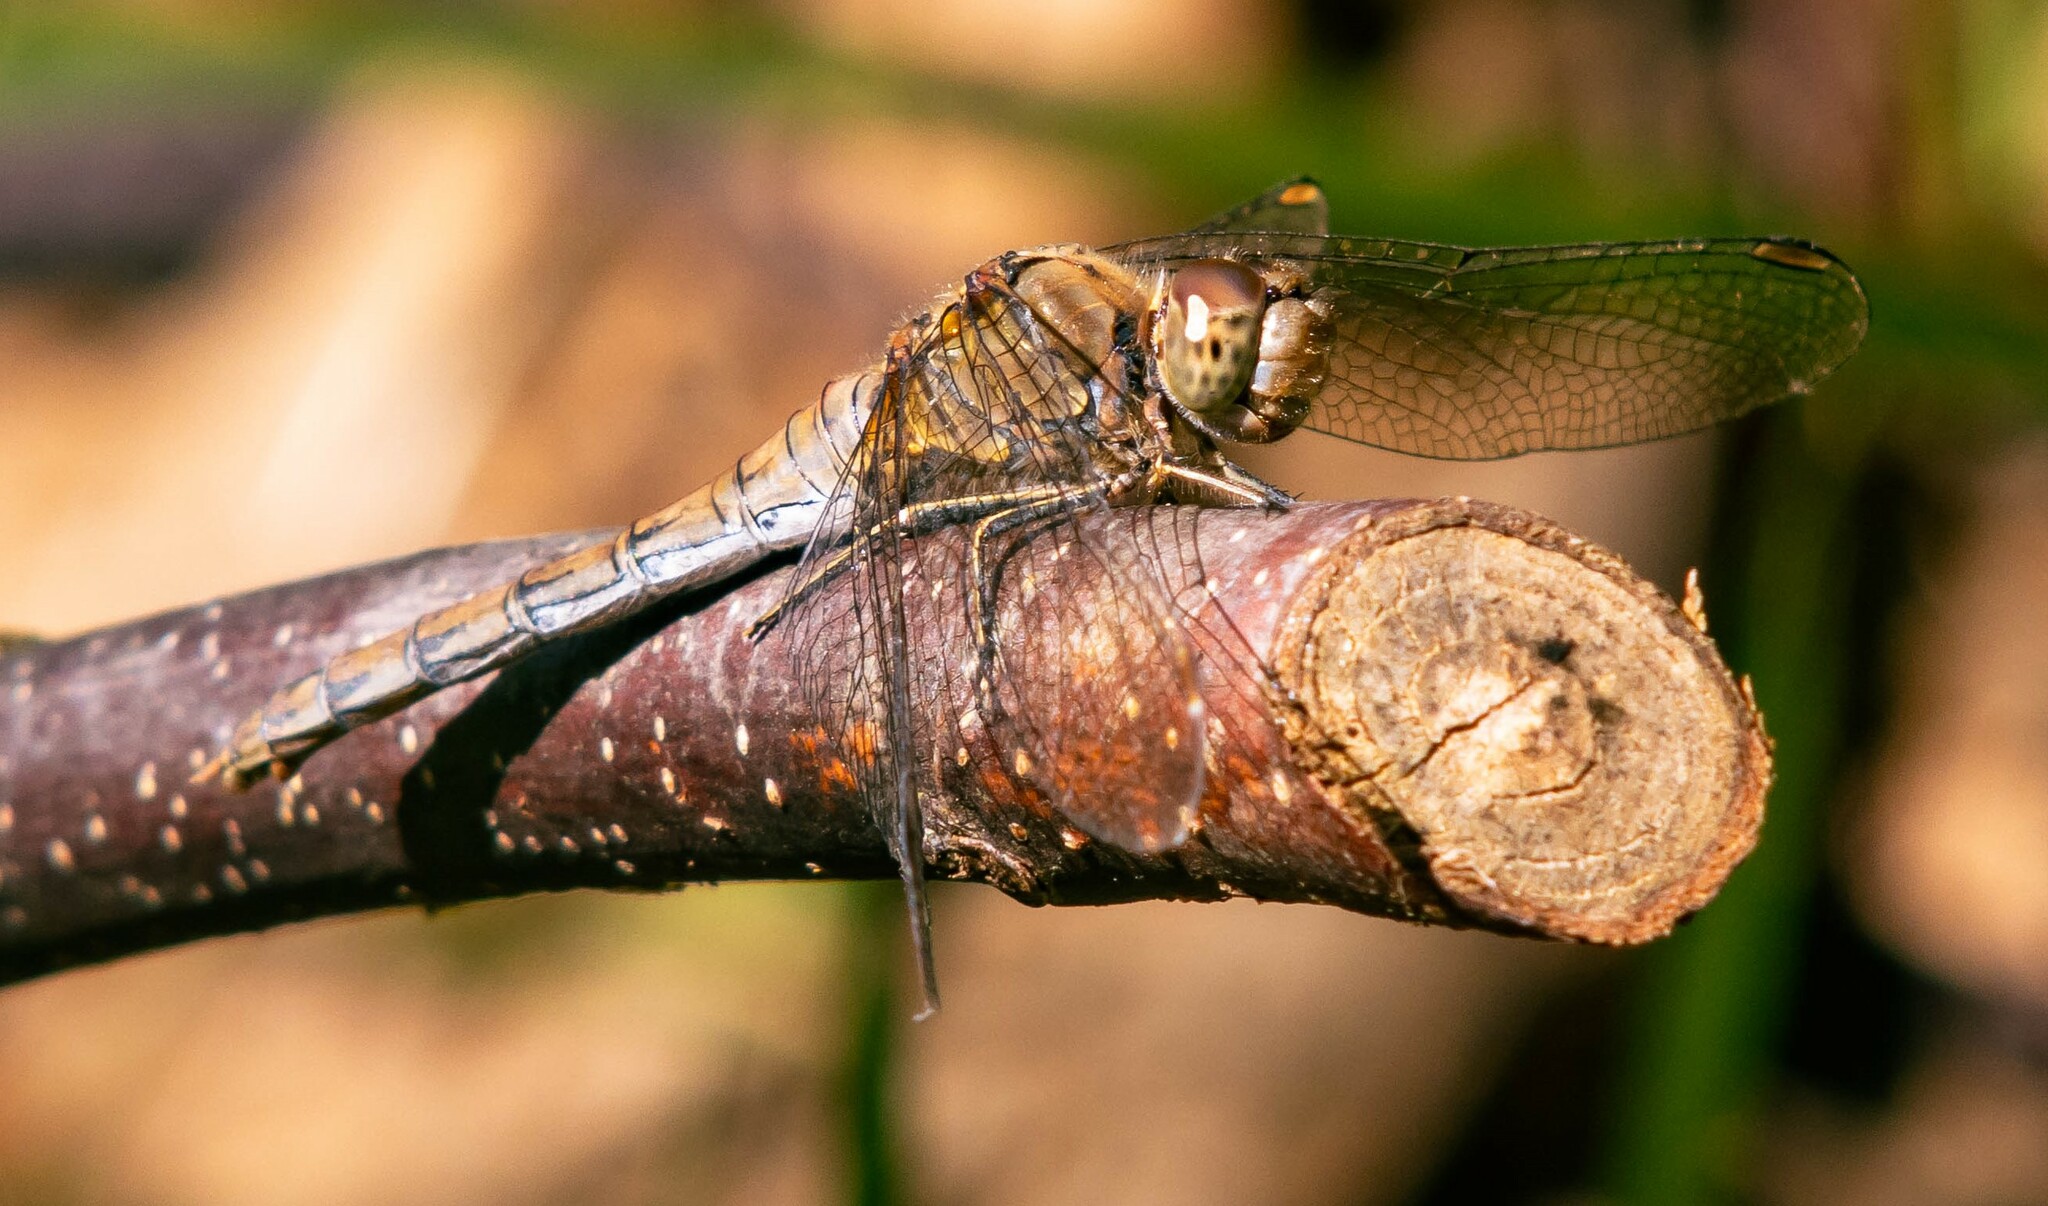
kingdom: Animalia
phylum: Arthropoda
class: Insecta
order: Odonata
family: Libellulidae
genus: Sympetrum
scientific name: Sympetrum striolatum
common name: Common darter
